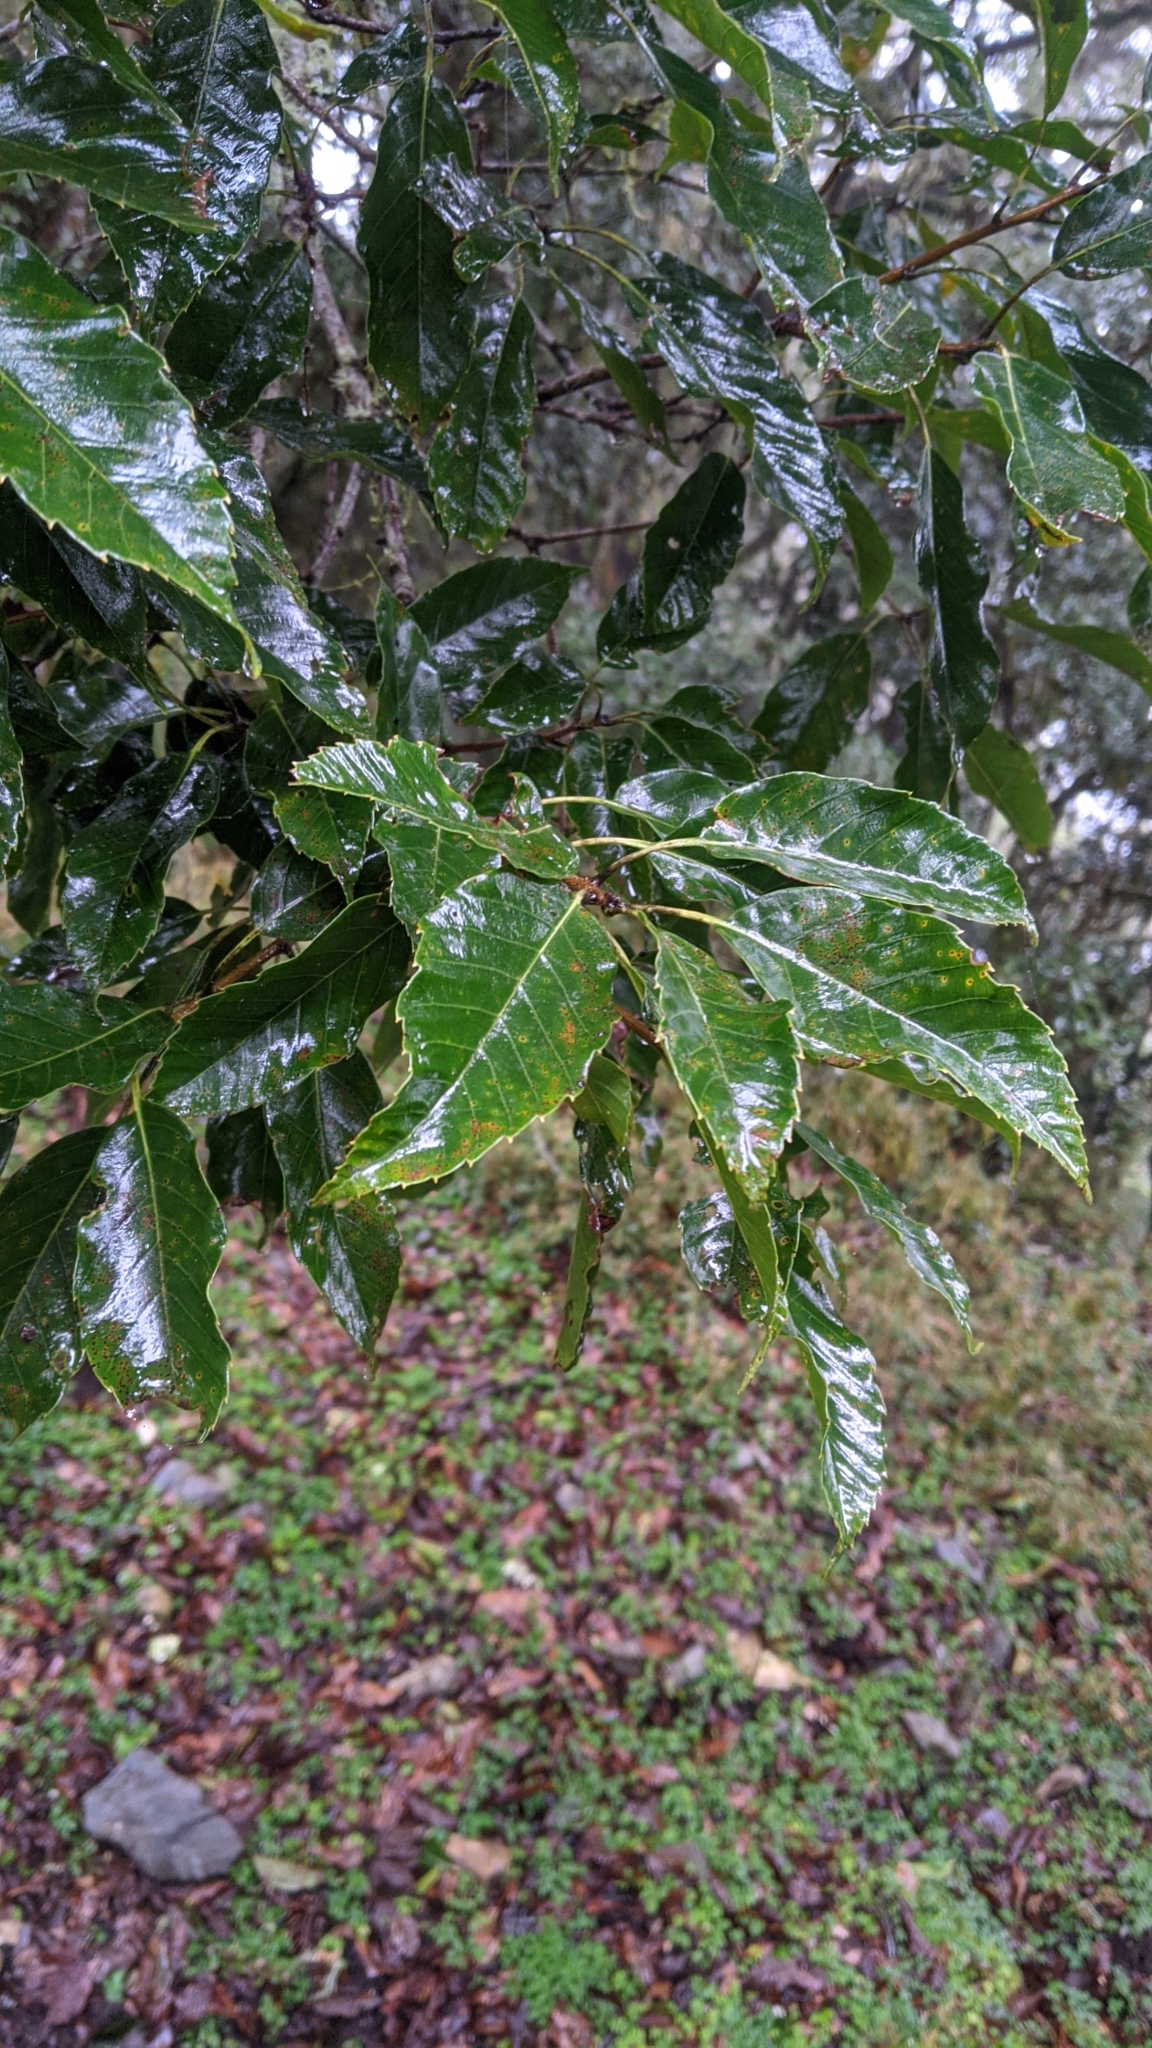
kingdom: Plantae
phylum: Tracheophyta
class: Magnoliopsida
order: Fagales
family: Fagaceae
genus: Quercus
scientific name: Quercus morii
